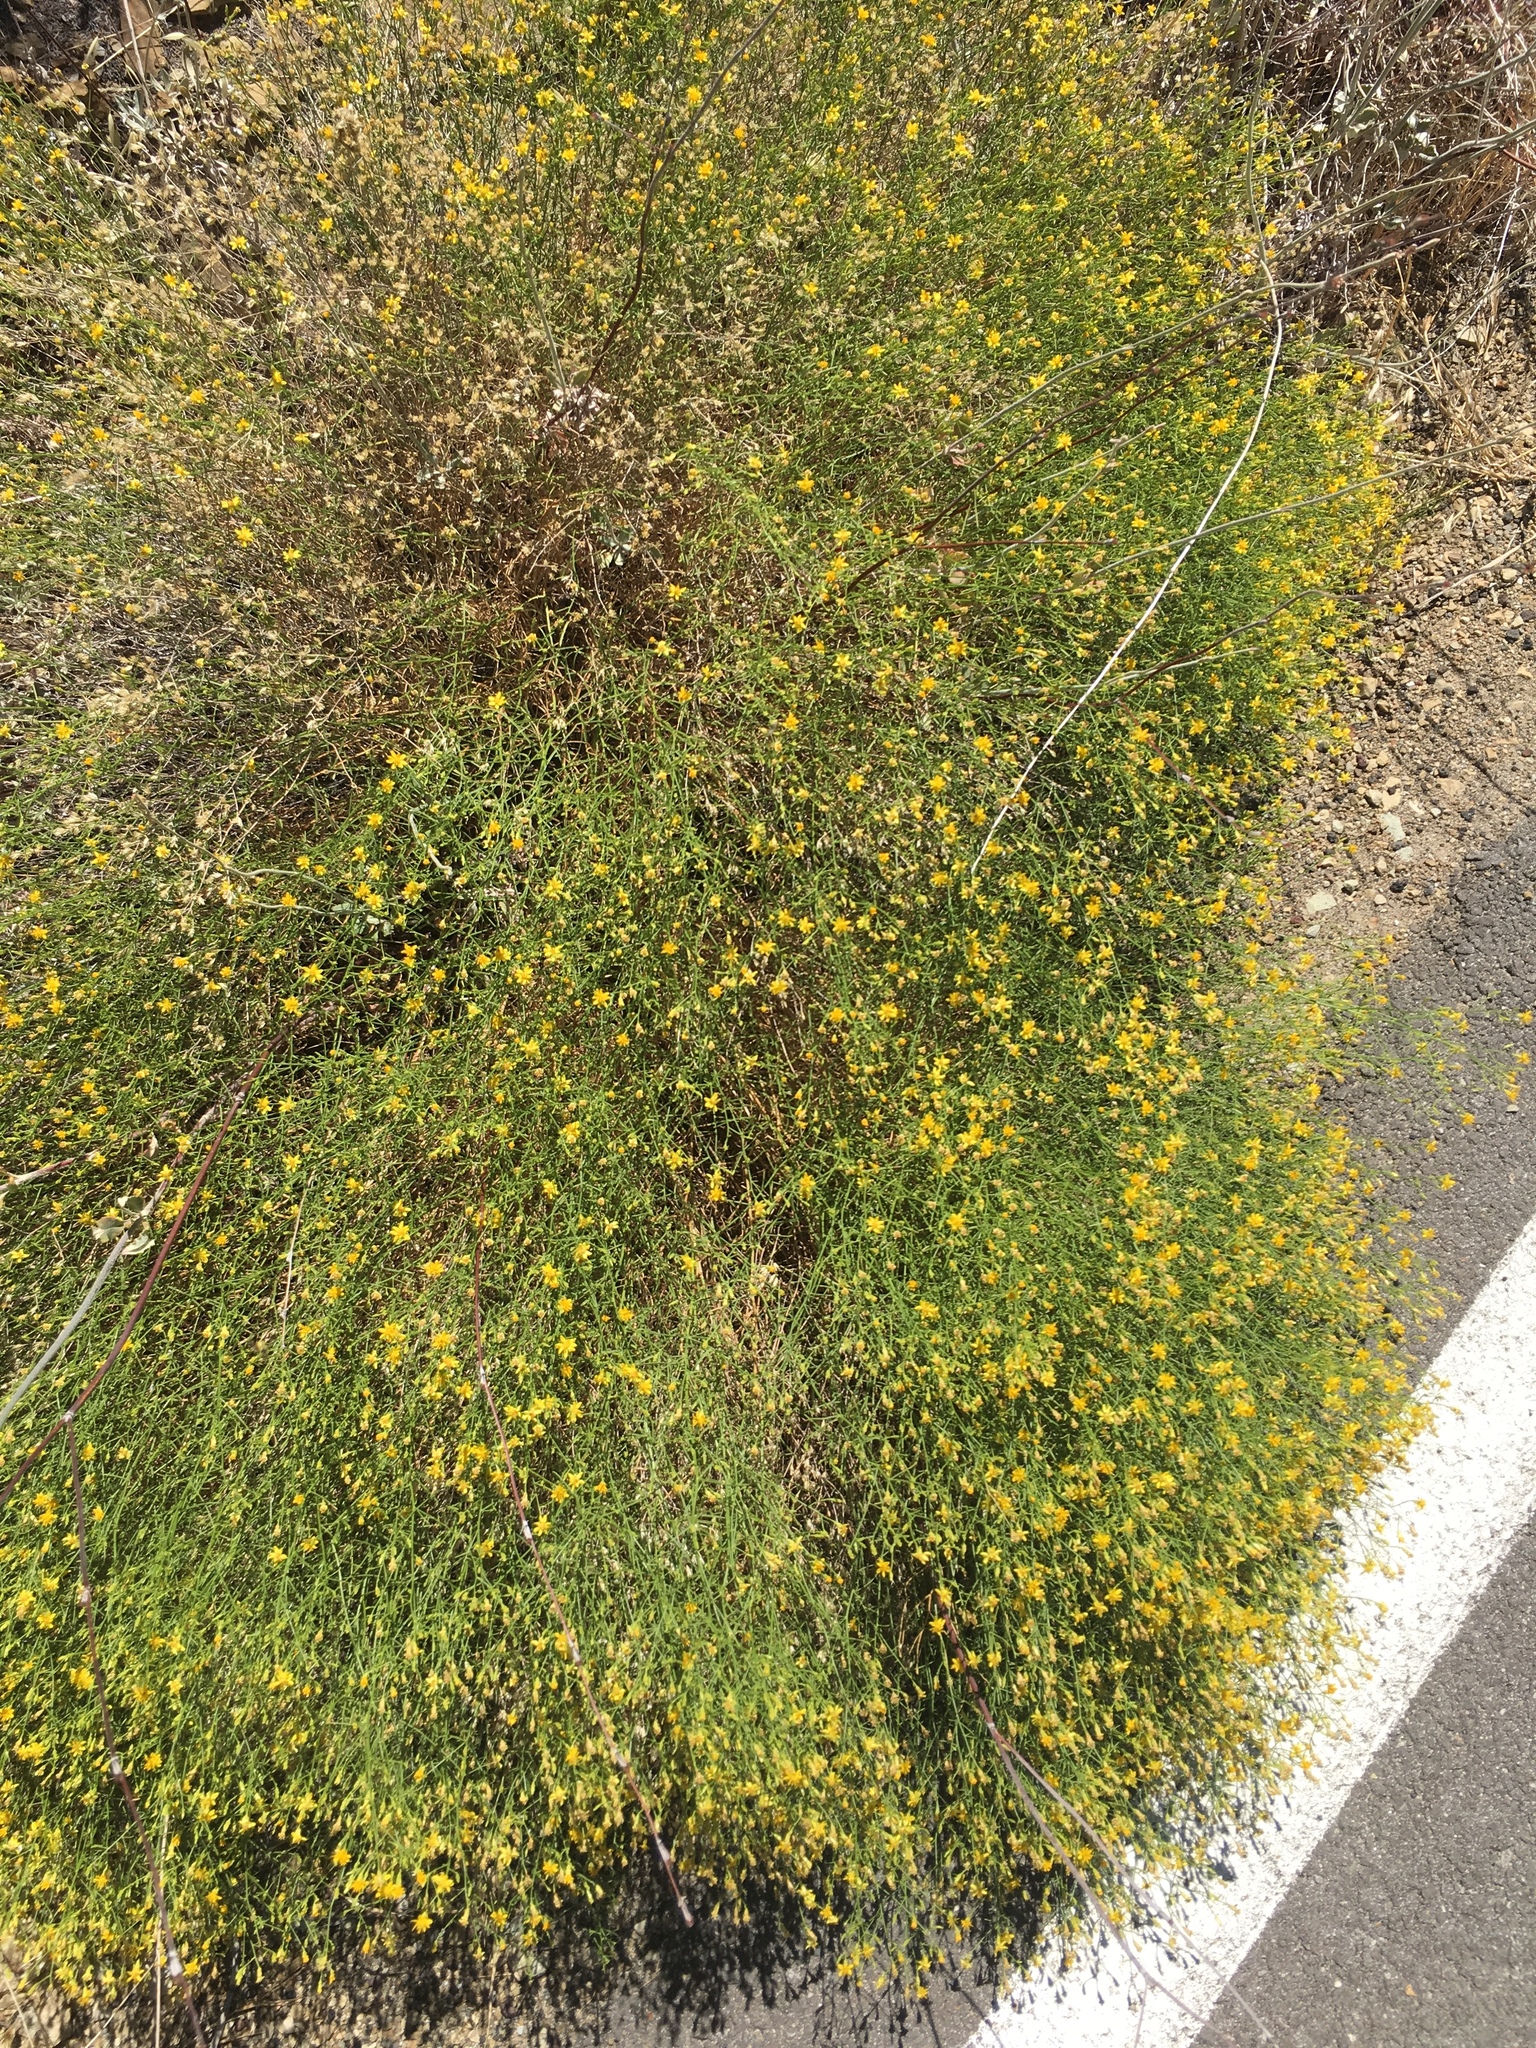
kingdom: Plantae
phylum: Tracheophyta
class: Magnoliopsida
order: Asterales
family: Asteraceae
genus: Gutierrezia
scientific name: Gutierrezia californica
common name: California matchweed
